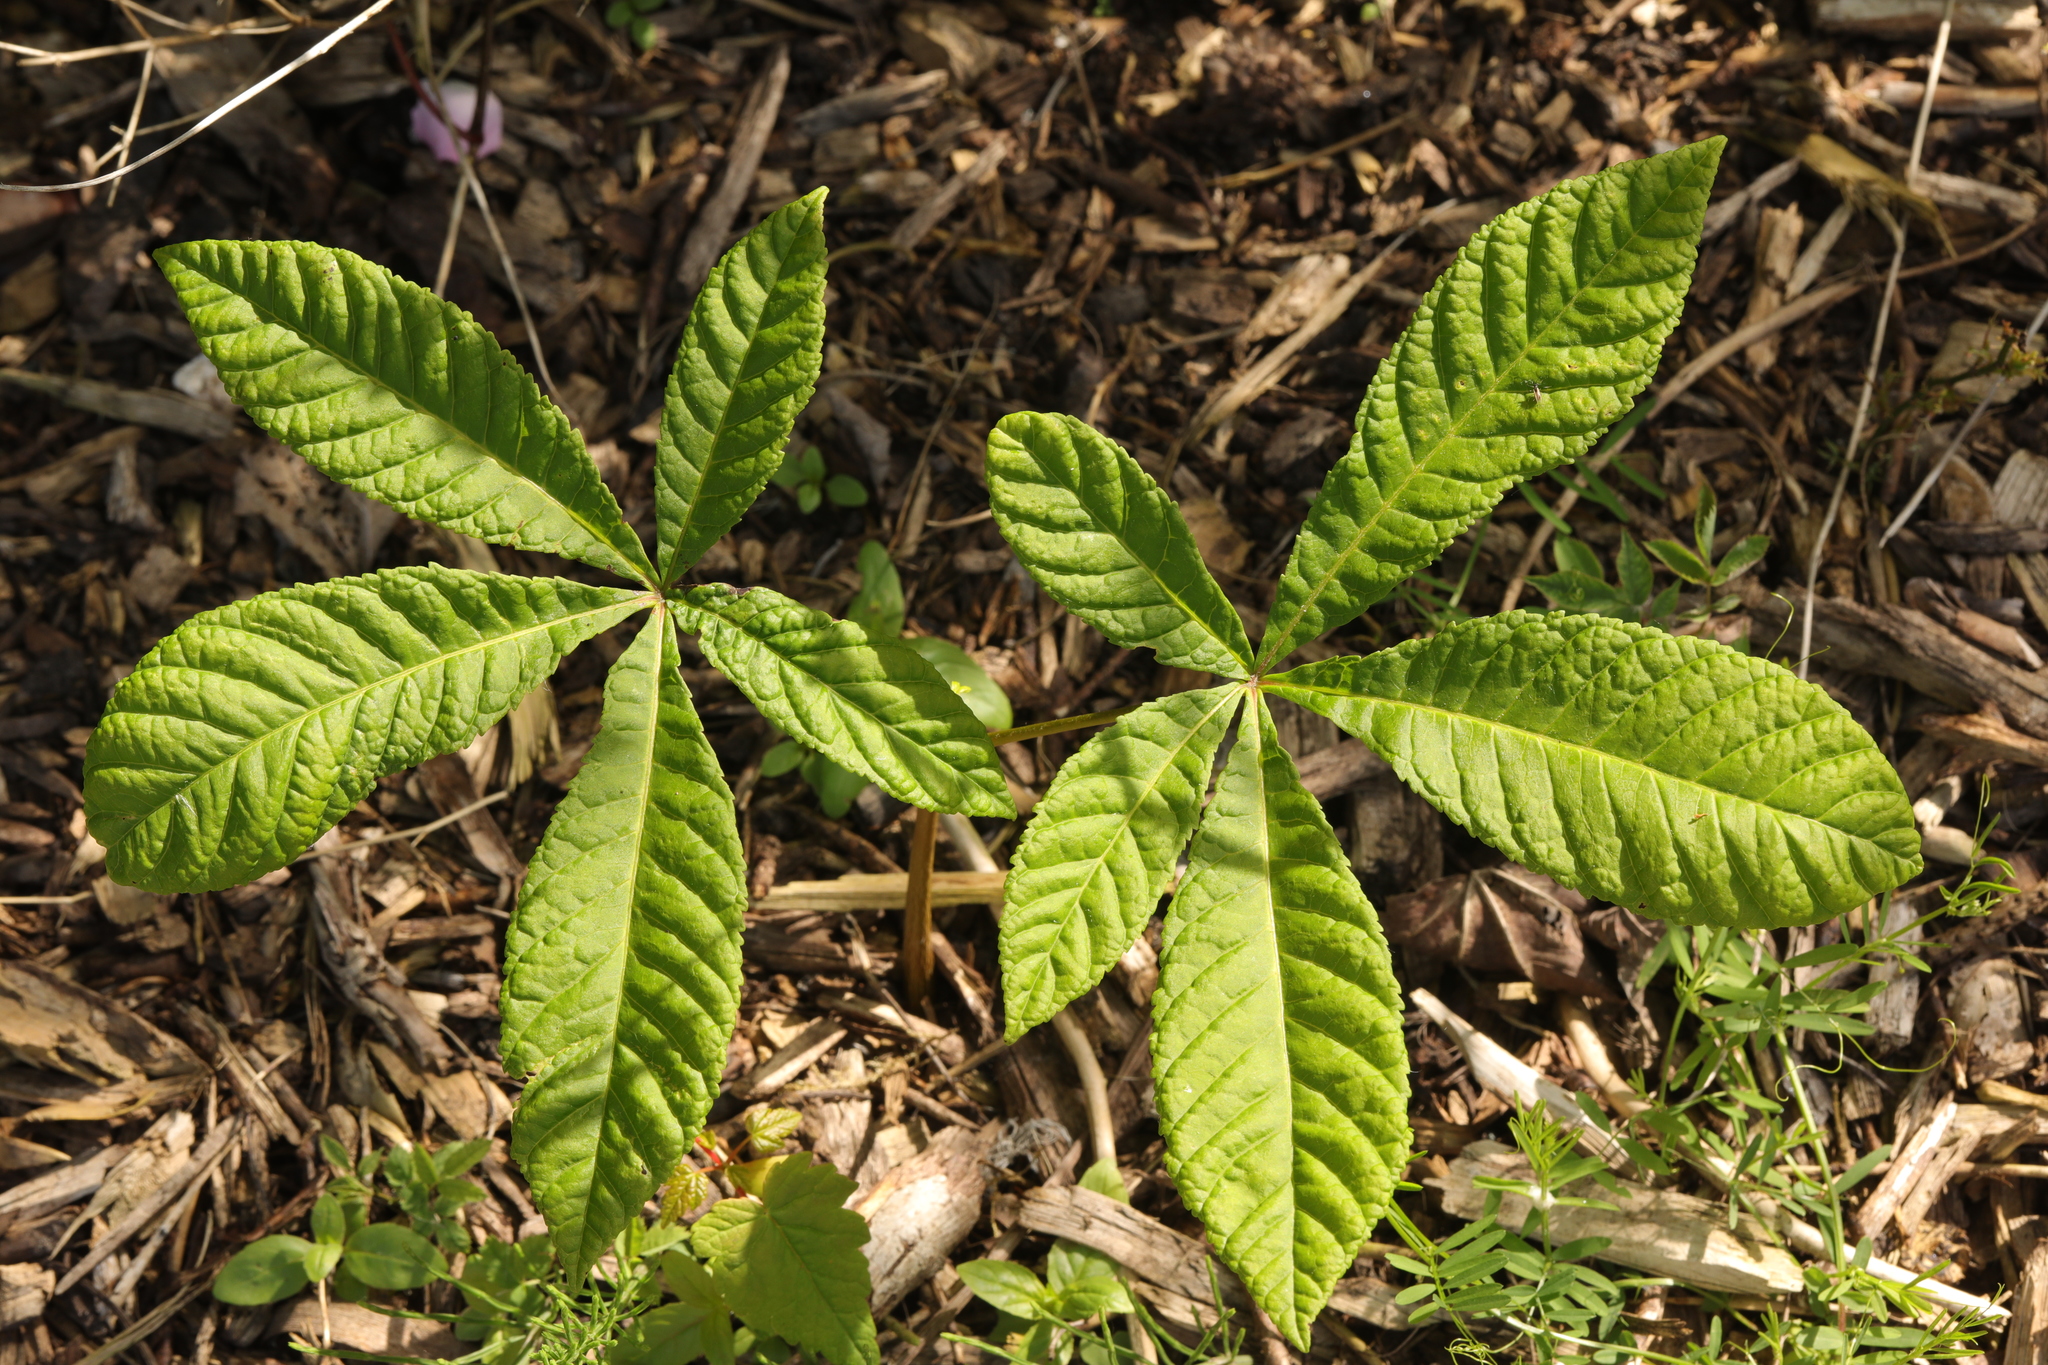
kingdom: Plantae
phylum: Tracheophyta
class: Magnoliopsida
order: Sapindales
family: Sapindaceae
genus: Aesculus
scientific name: Aesculus hippocastanum
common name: Horse-chestnut
